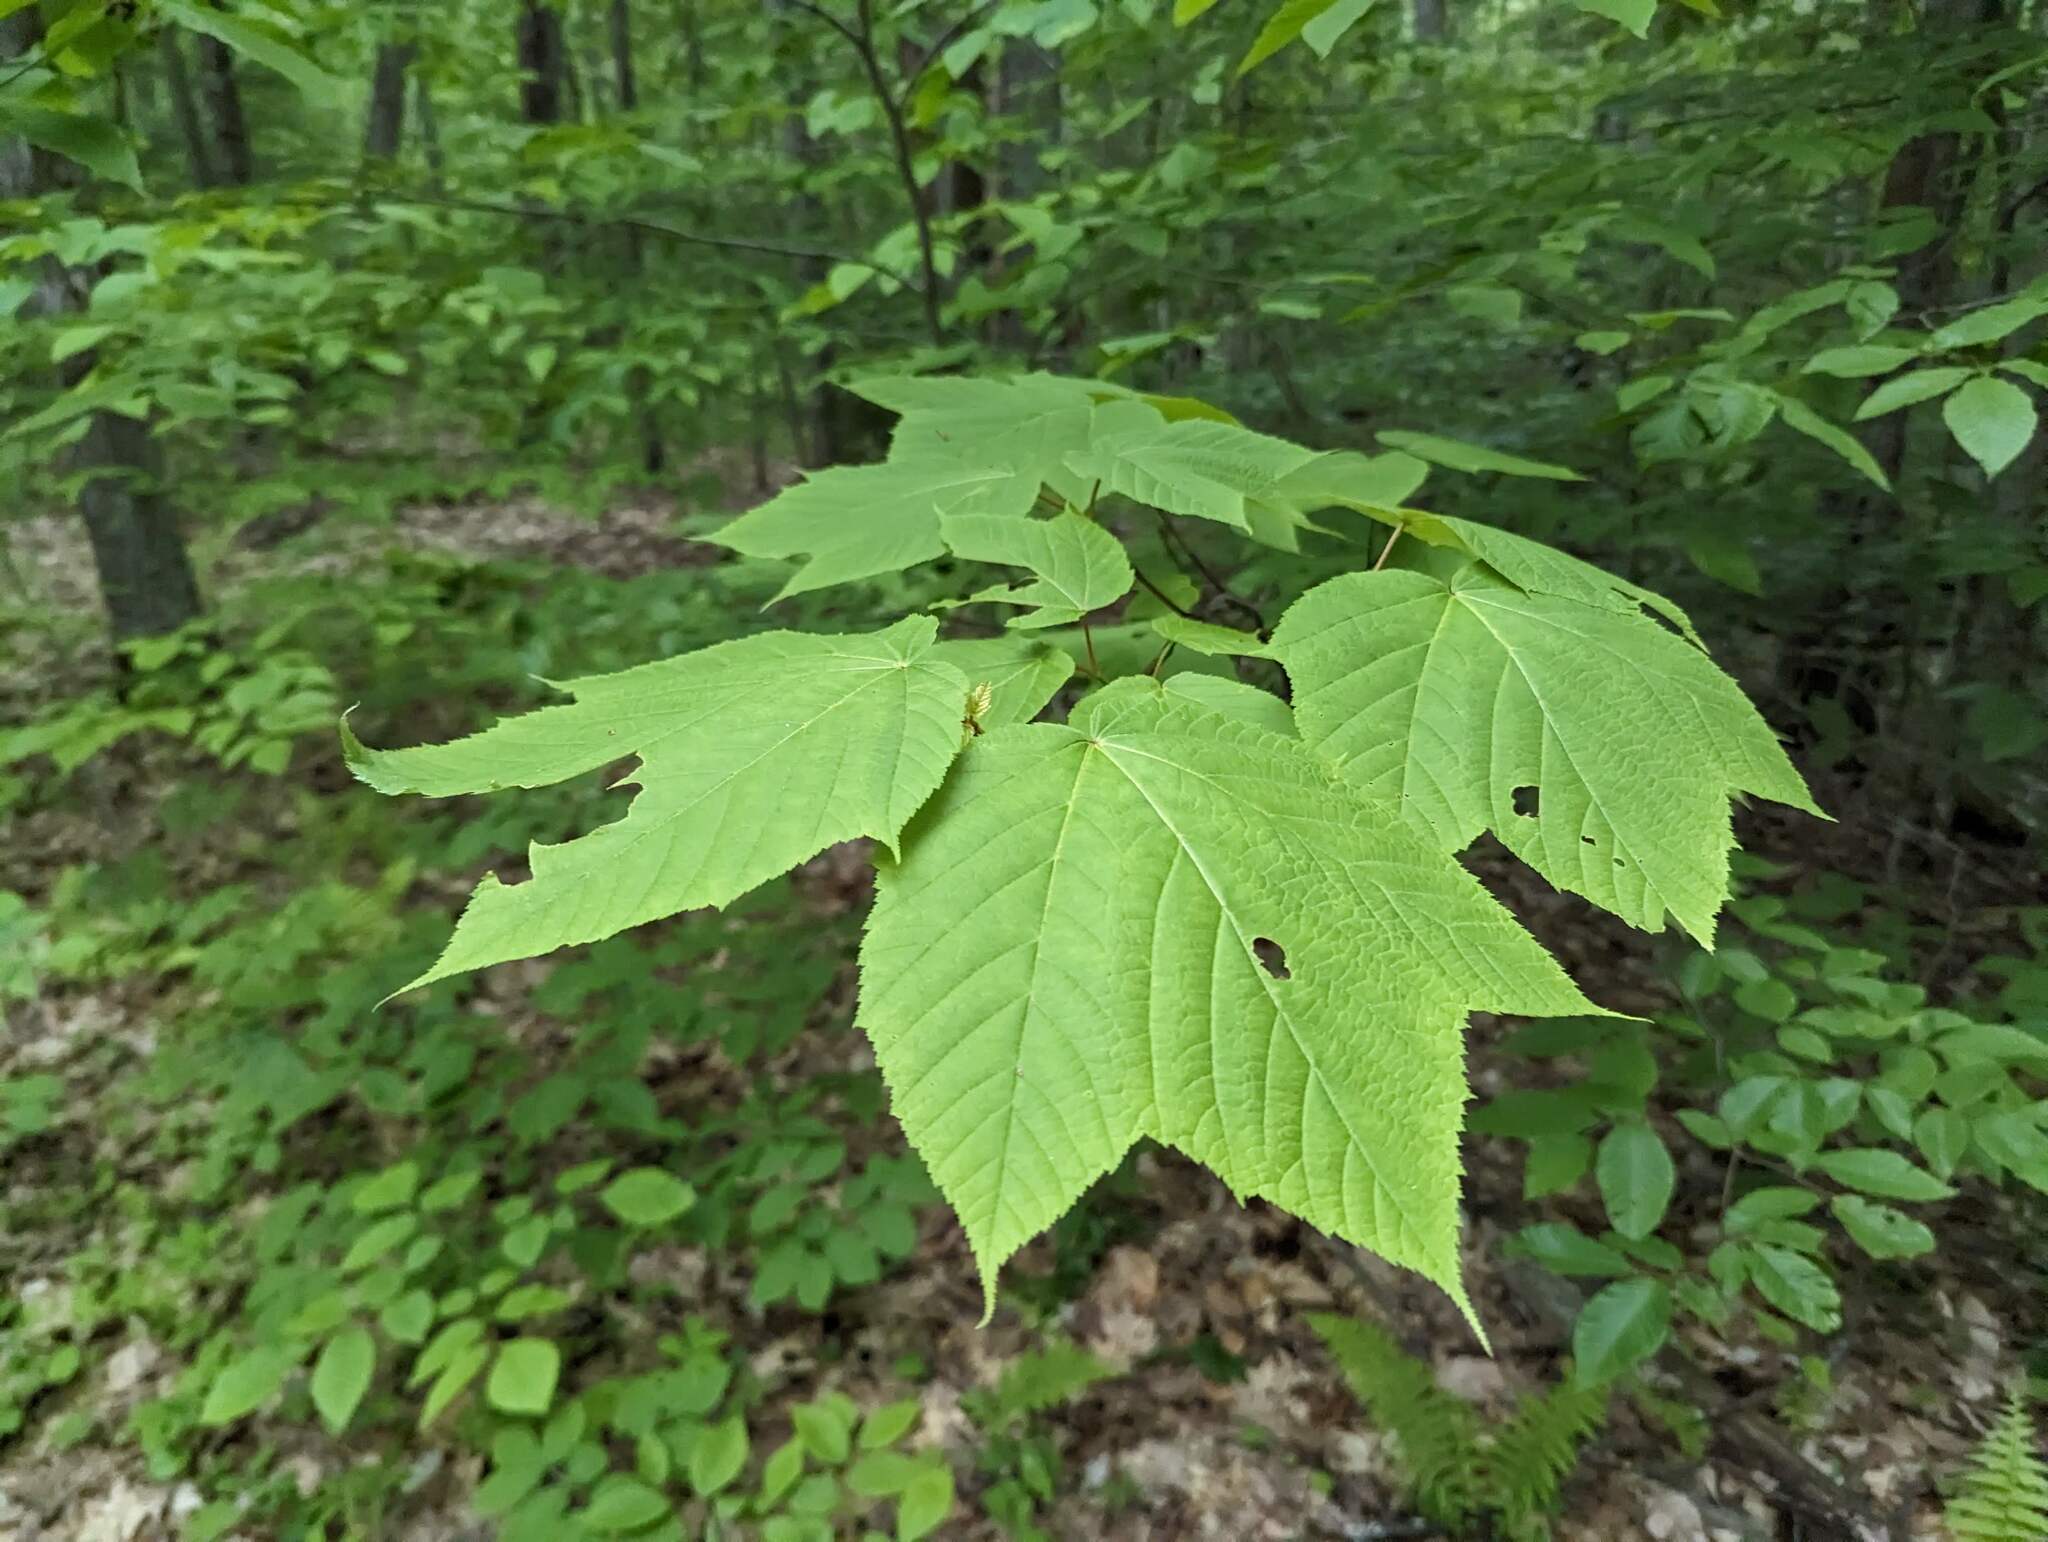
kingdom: Plantae
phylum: Tracheophyta
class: Magnoliopsida
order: Sapindales
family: Sapindaceae
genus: Acer
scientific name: Acer pensylvanicum
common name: Moosewood
